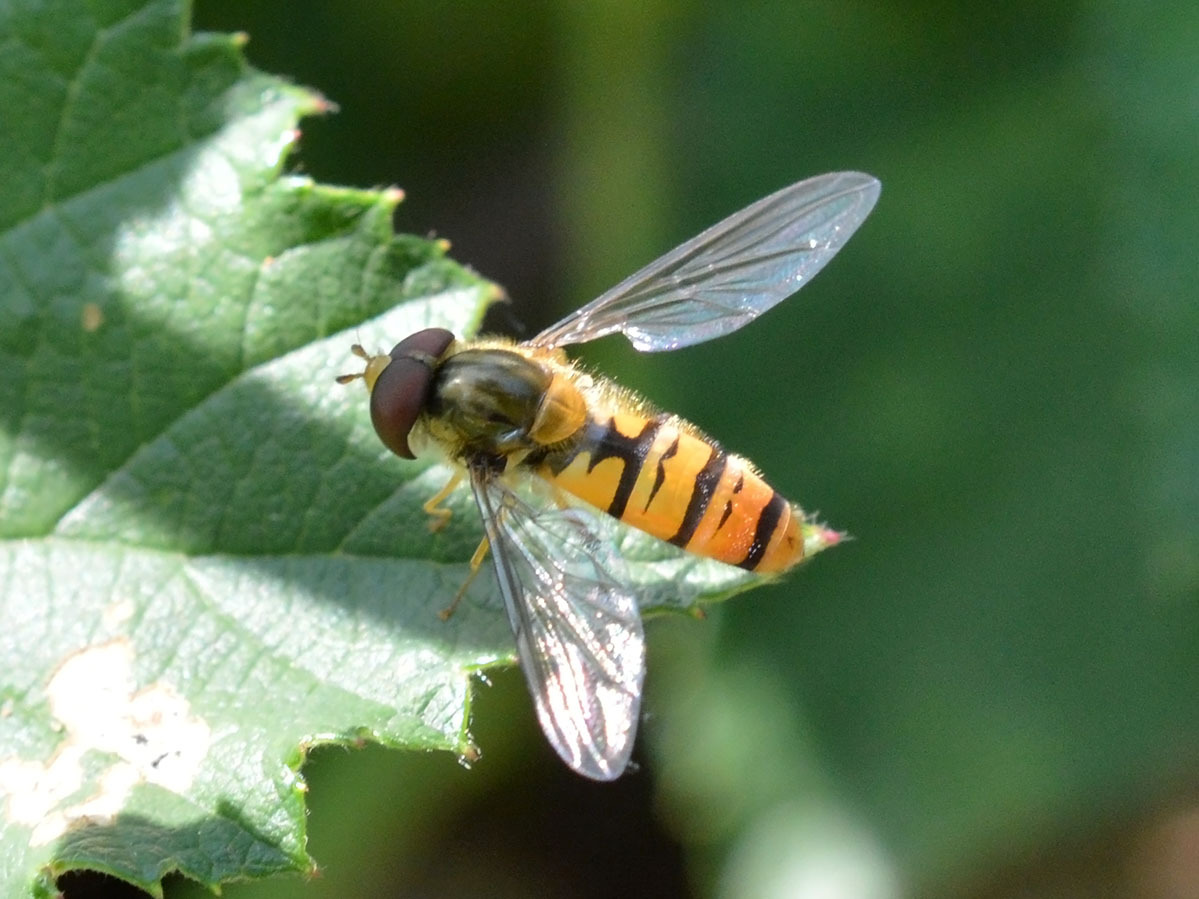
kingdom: Animalia
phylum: Arthropoda
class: Insecta
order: Diptera
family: Syrphidae
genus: Episyrphus
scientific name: Episyrphus balteatus
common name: Marmalade hoverfly
